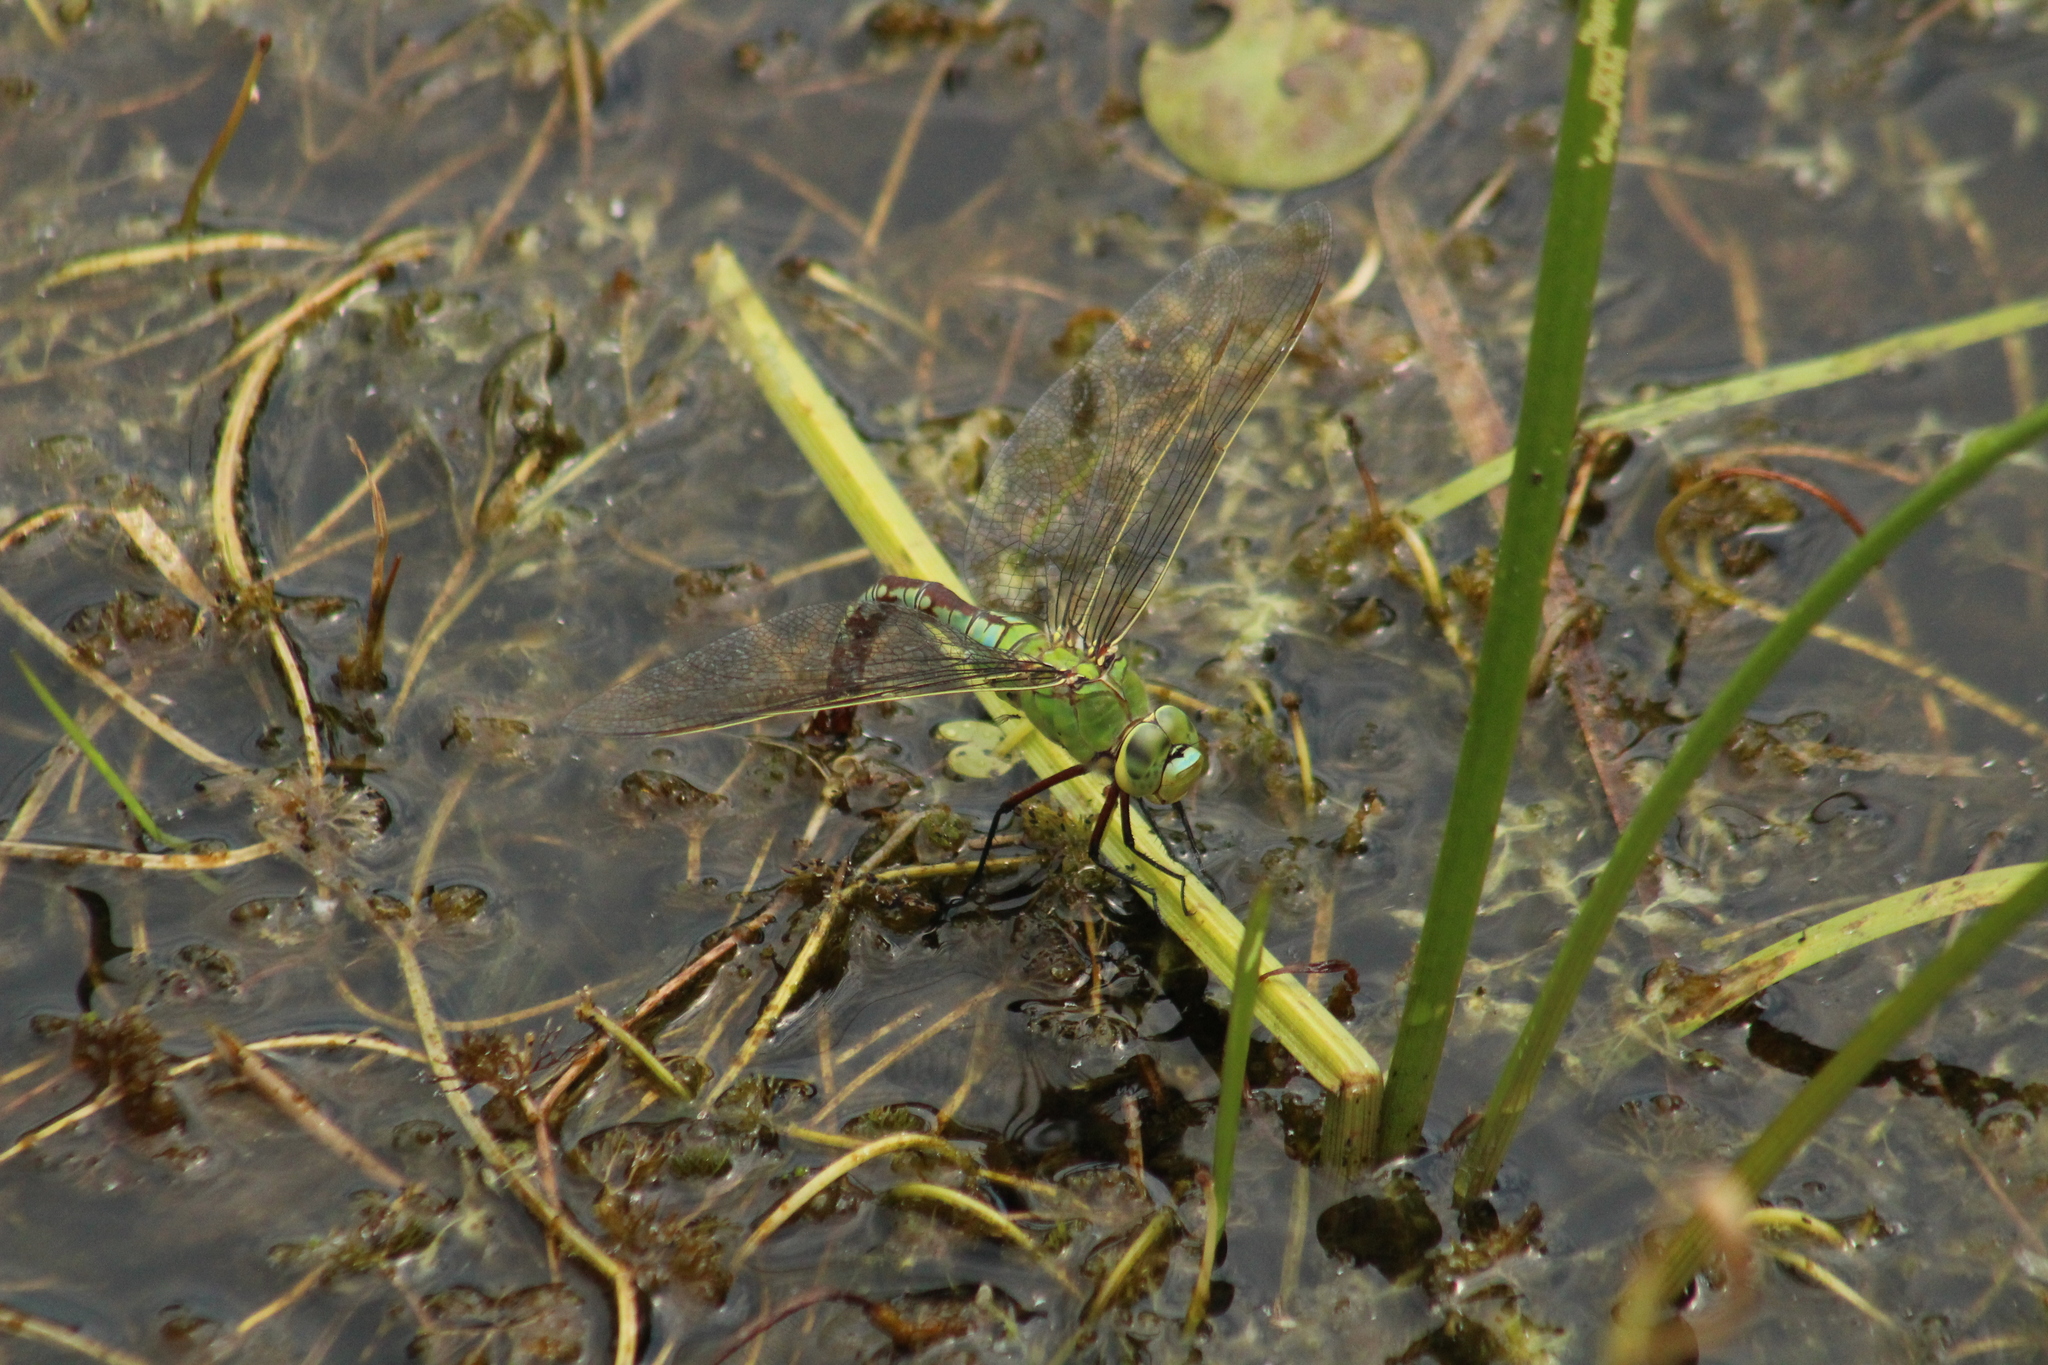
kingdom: Animalia
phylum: Arthropoda
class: Insecta
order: Odonata
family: Aeshnidae
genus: Anax
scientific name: Anax imperator
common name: Emperor dragonfly
